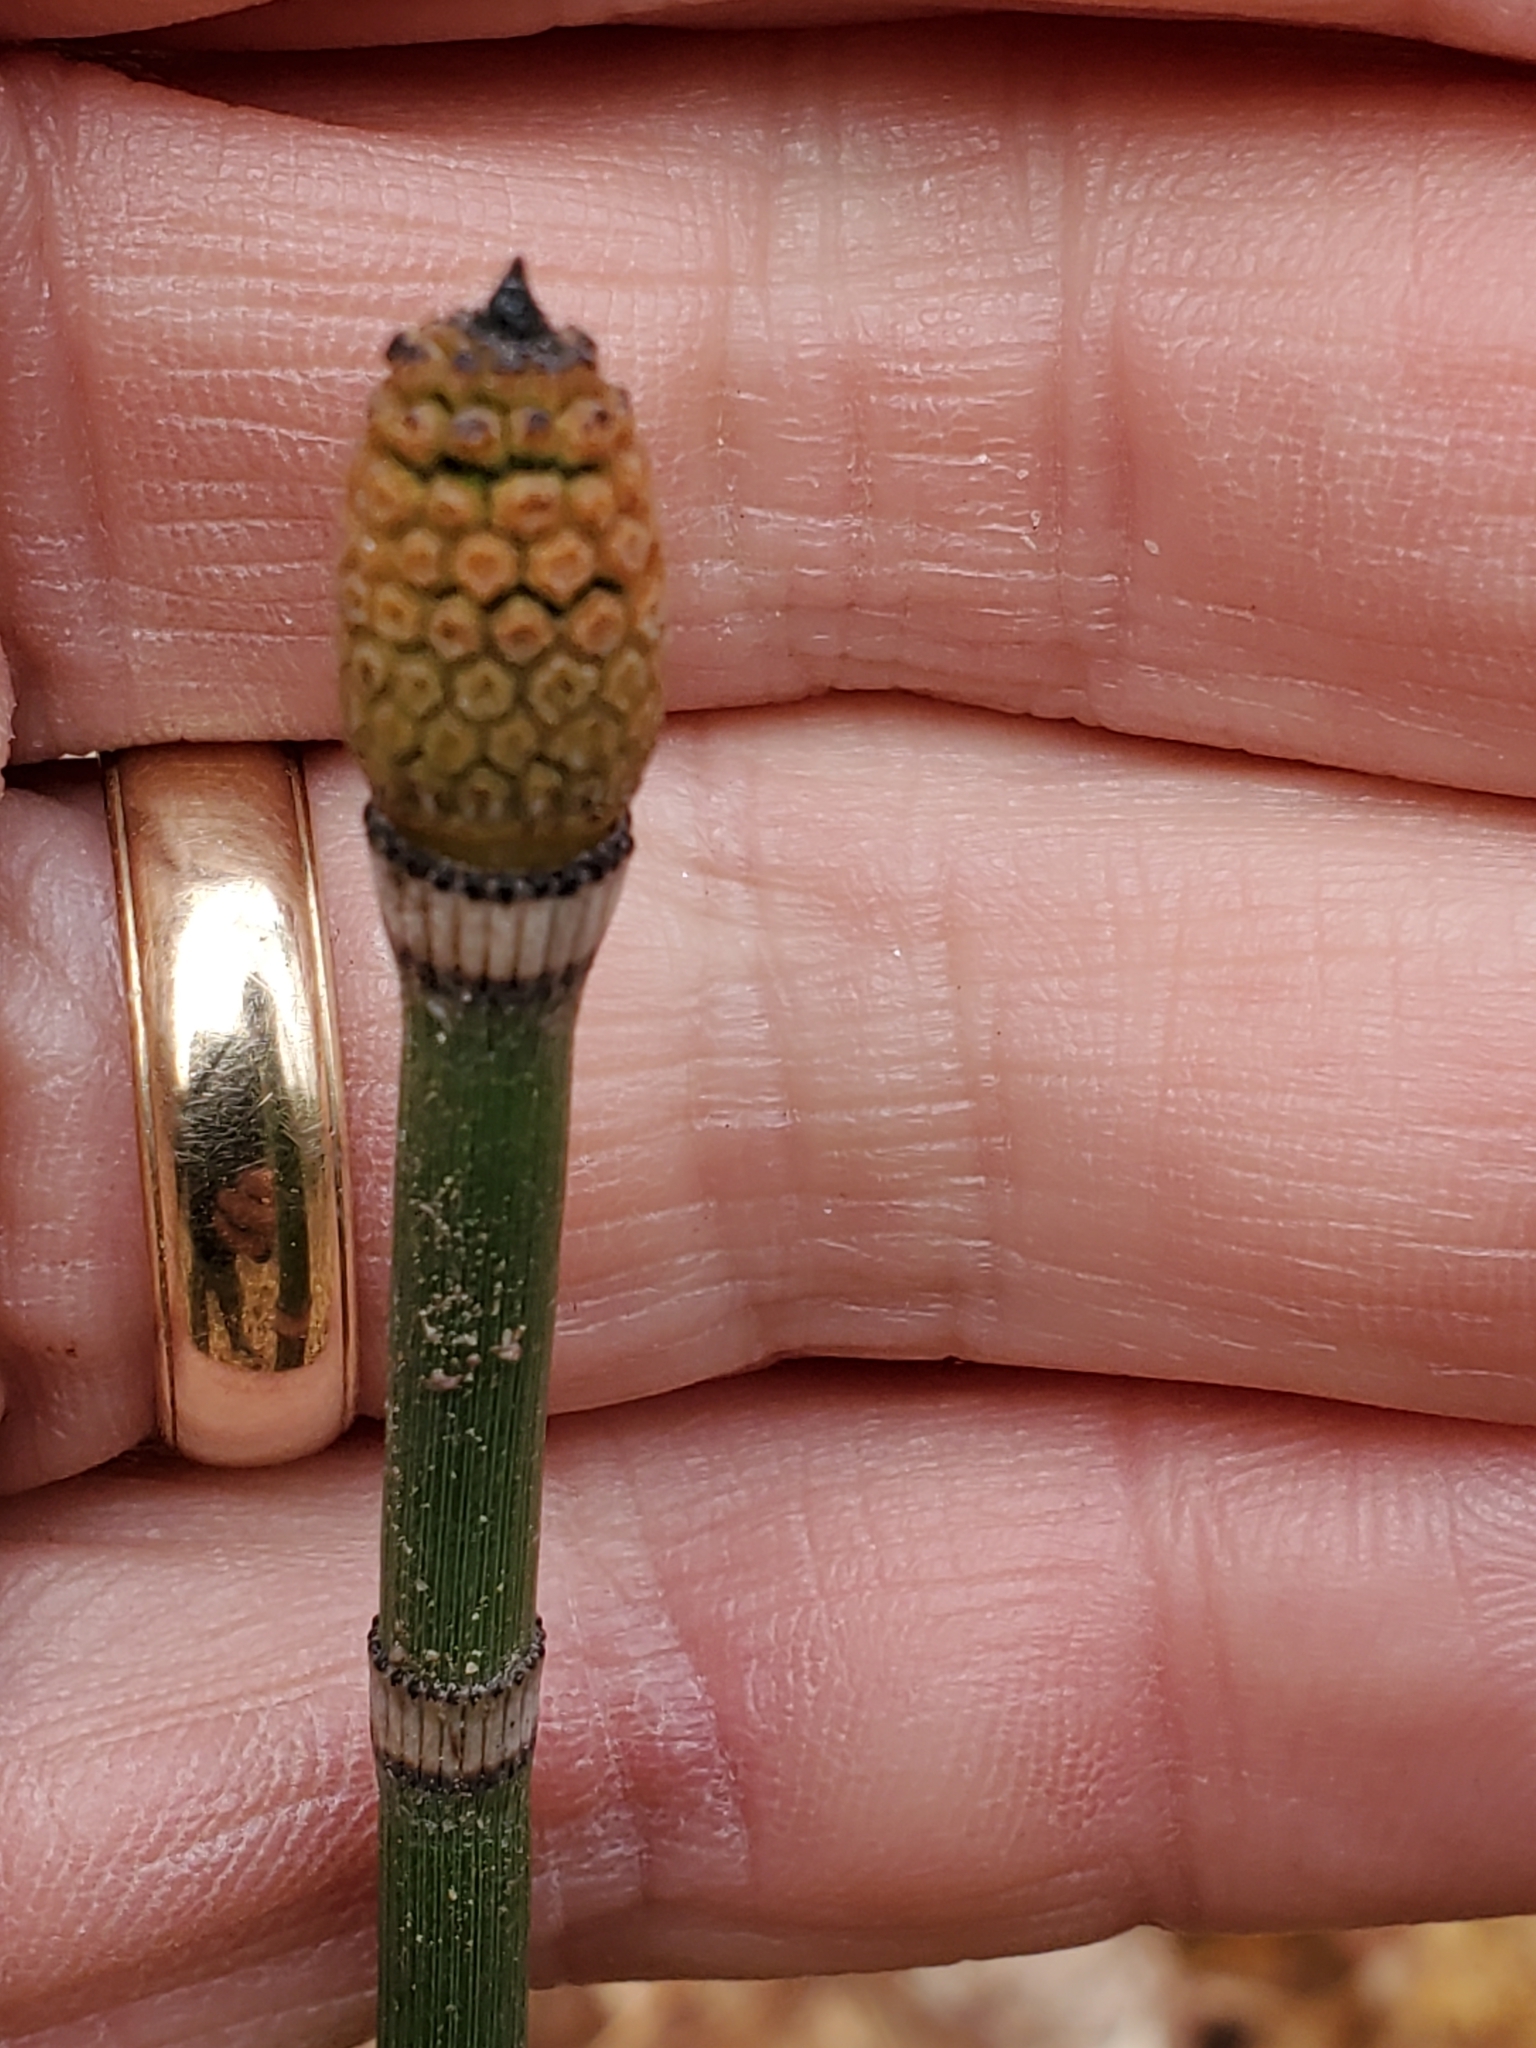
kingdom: Plantae
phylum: Tracheophyta
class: Polypodiopsida
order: Equisetales
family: Equisetaceae
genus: Equisetum
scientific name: Equisetum hyemale
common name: Rough horsetail
